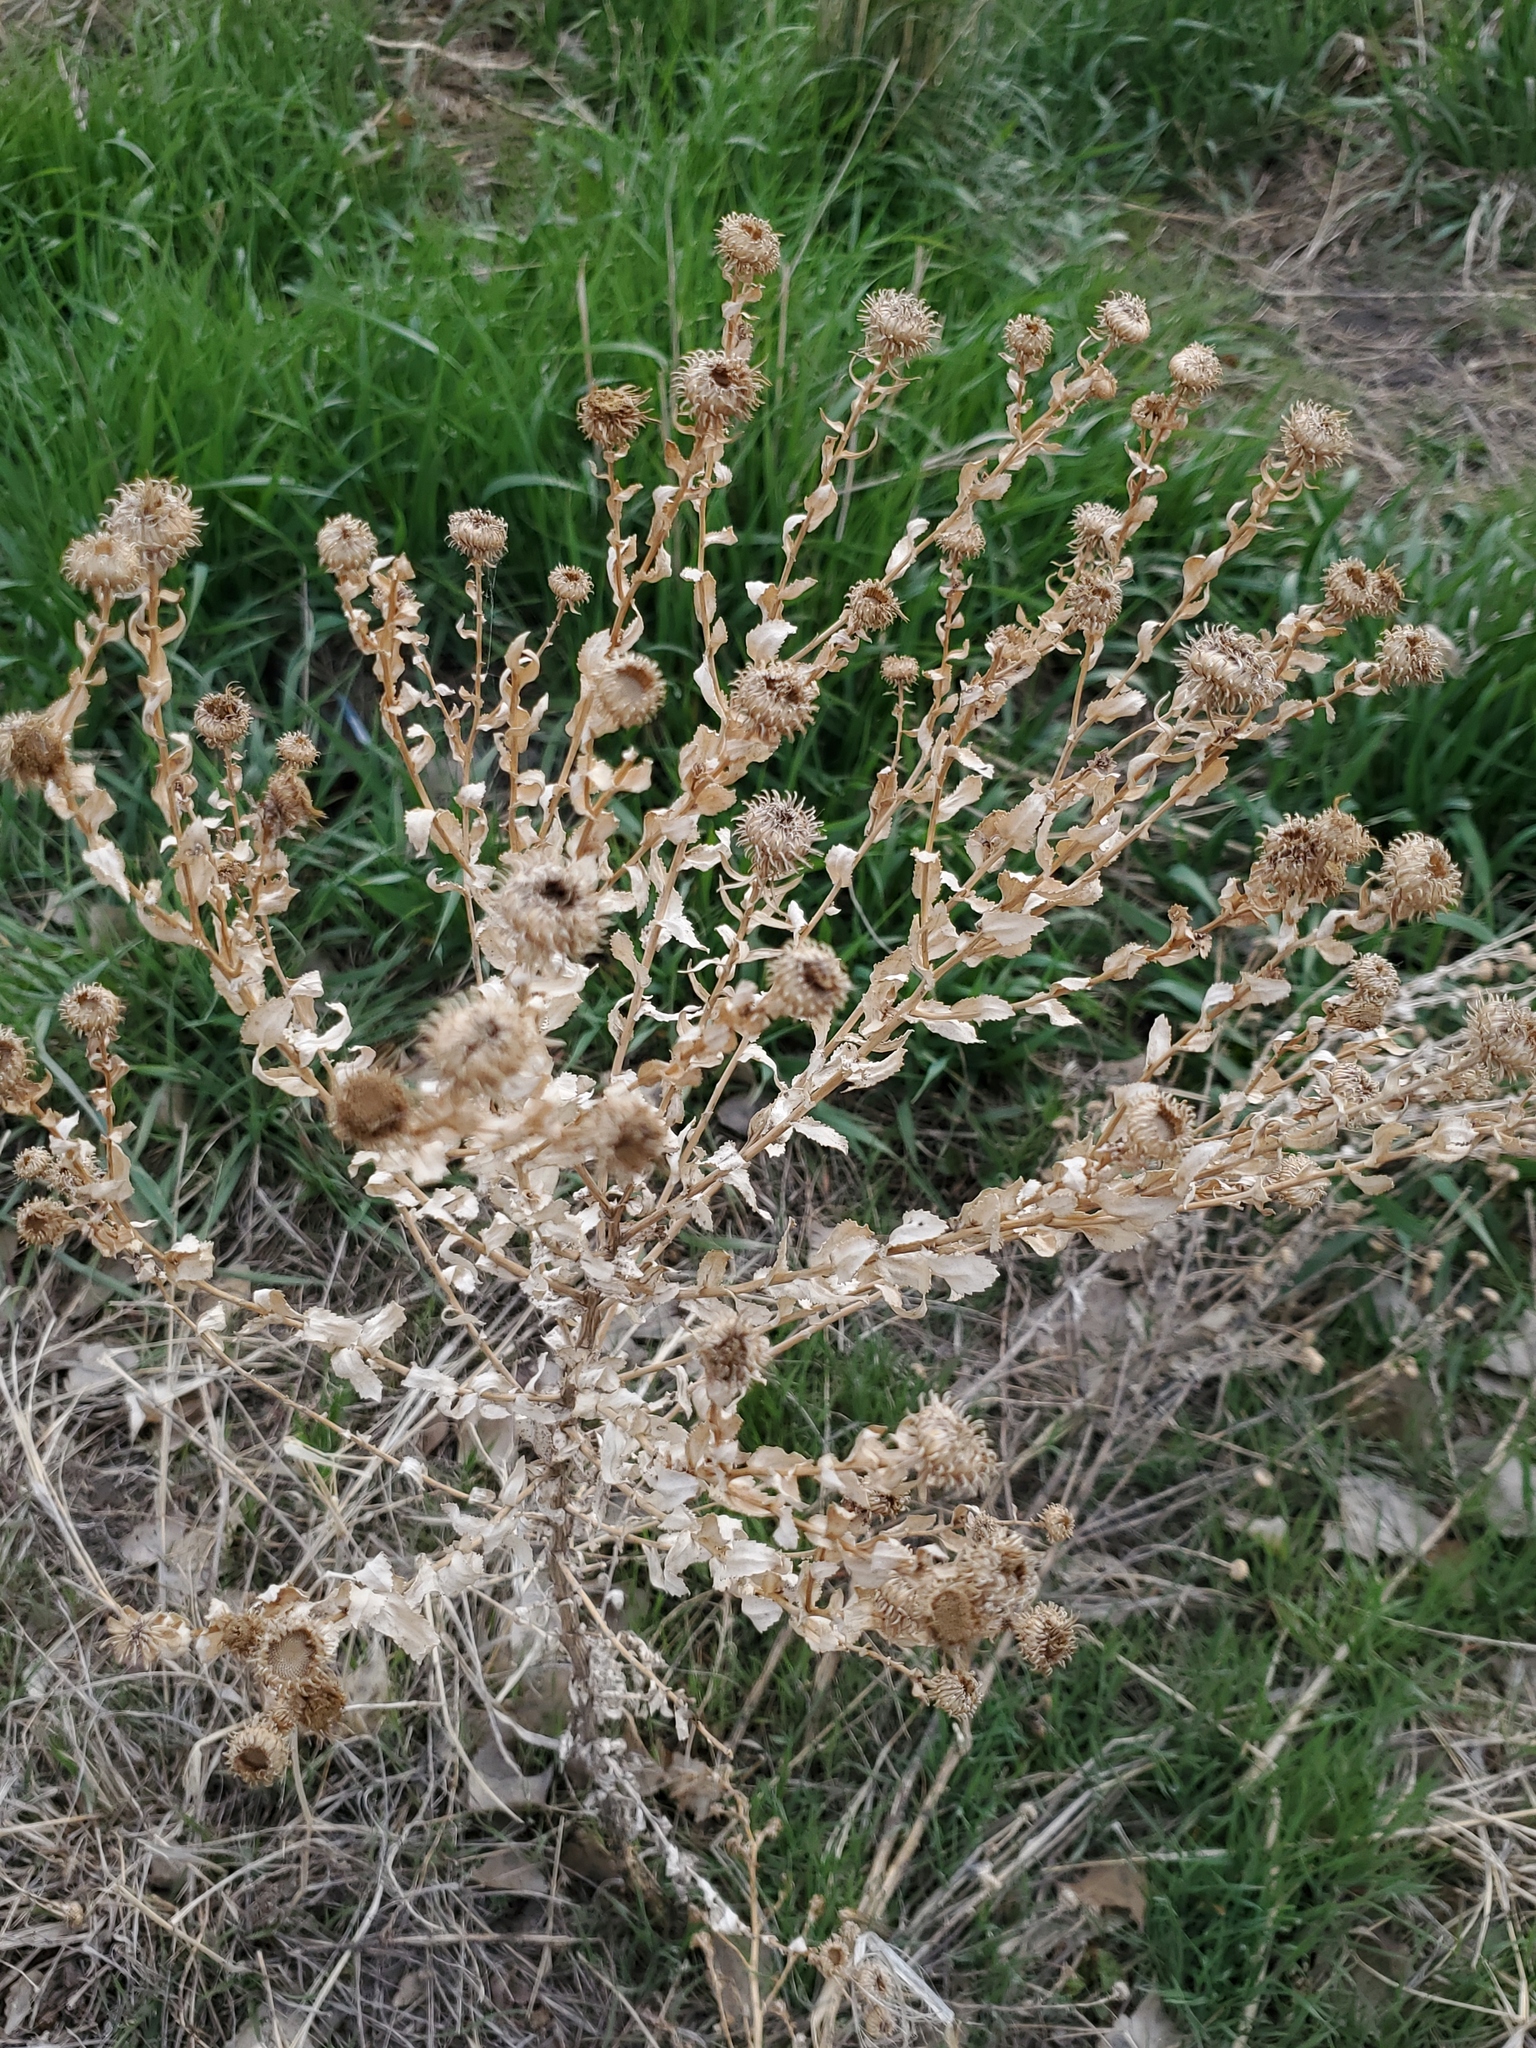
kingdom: Plantae
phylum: Tracheophyta
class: Magnoliopsida
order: Asterales
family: Asteraceae
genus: Grindelia
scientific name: Grindelia squarrosa
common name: Curly-cup gumweed
